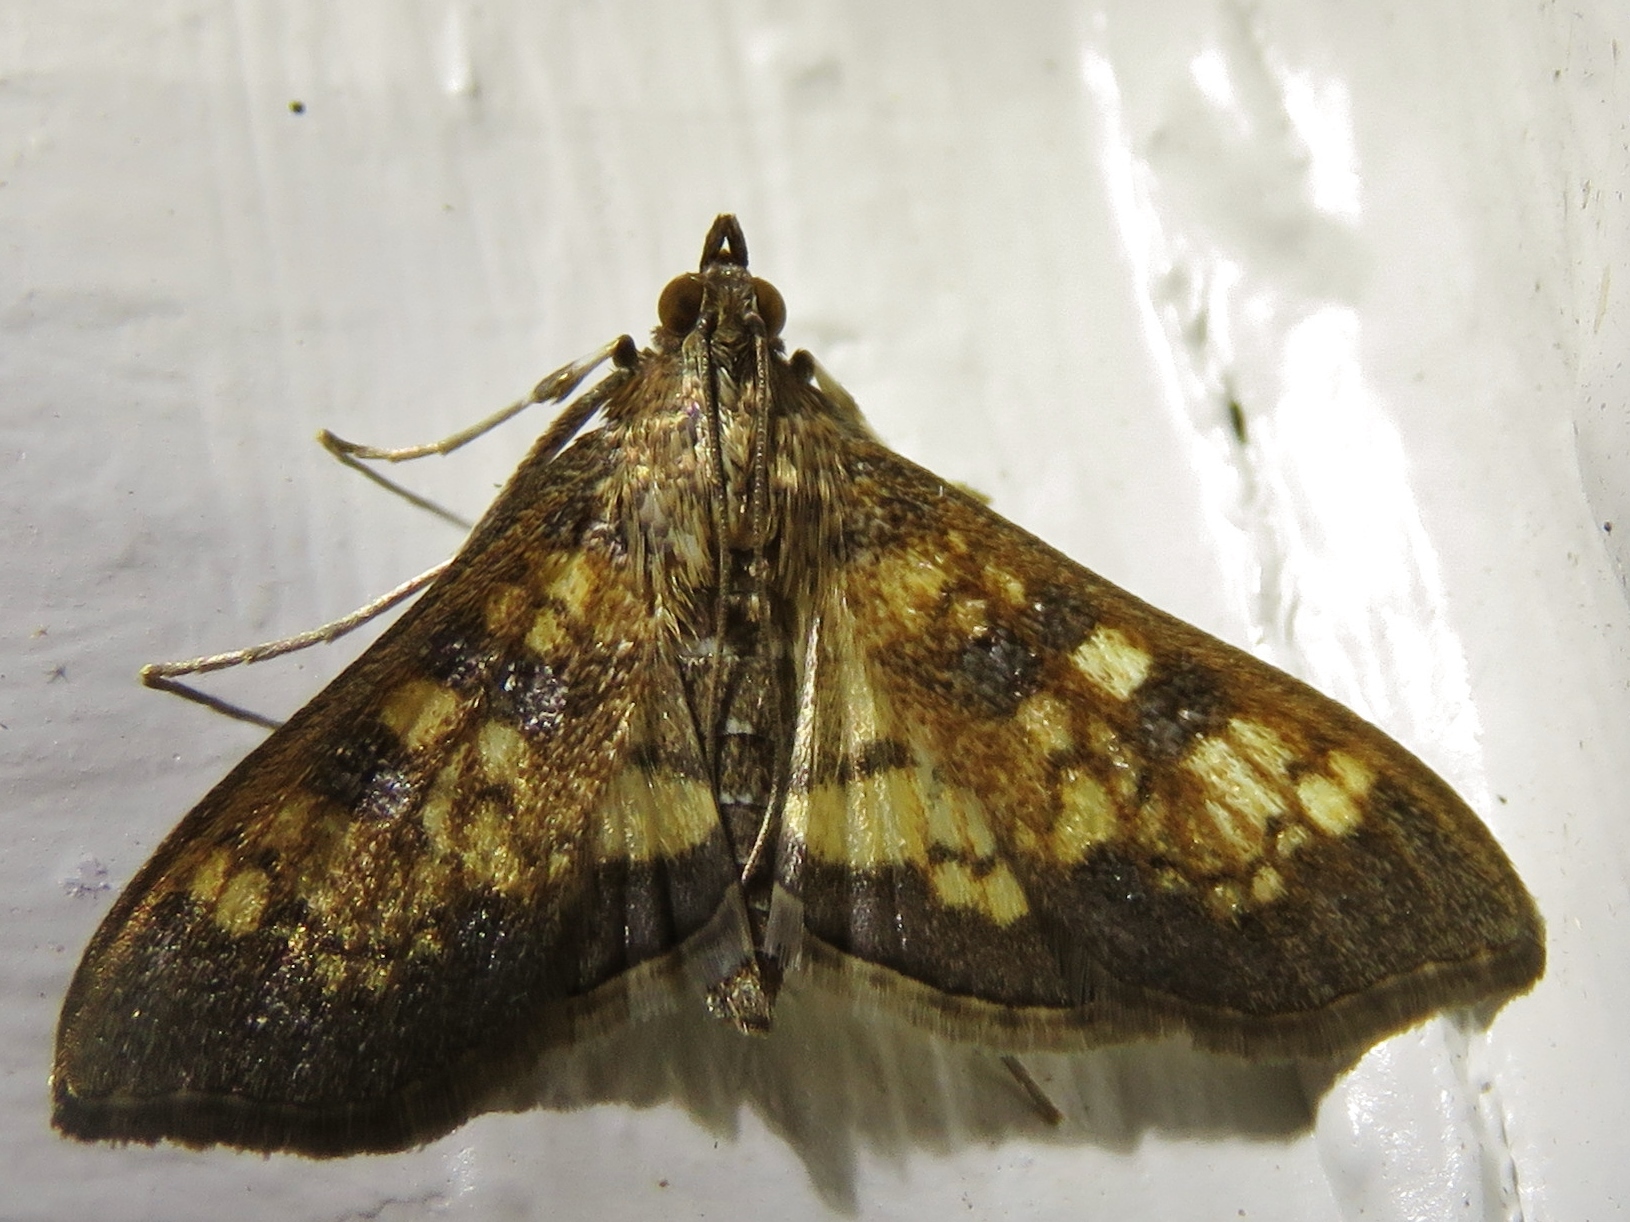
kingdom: Animalia
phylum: Arthropoda
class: Insecta
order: Lepidoptera
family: Crambidae
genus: Cryptographis
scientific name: Cryptographis elealis
